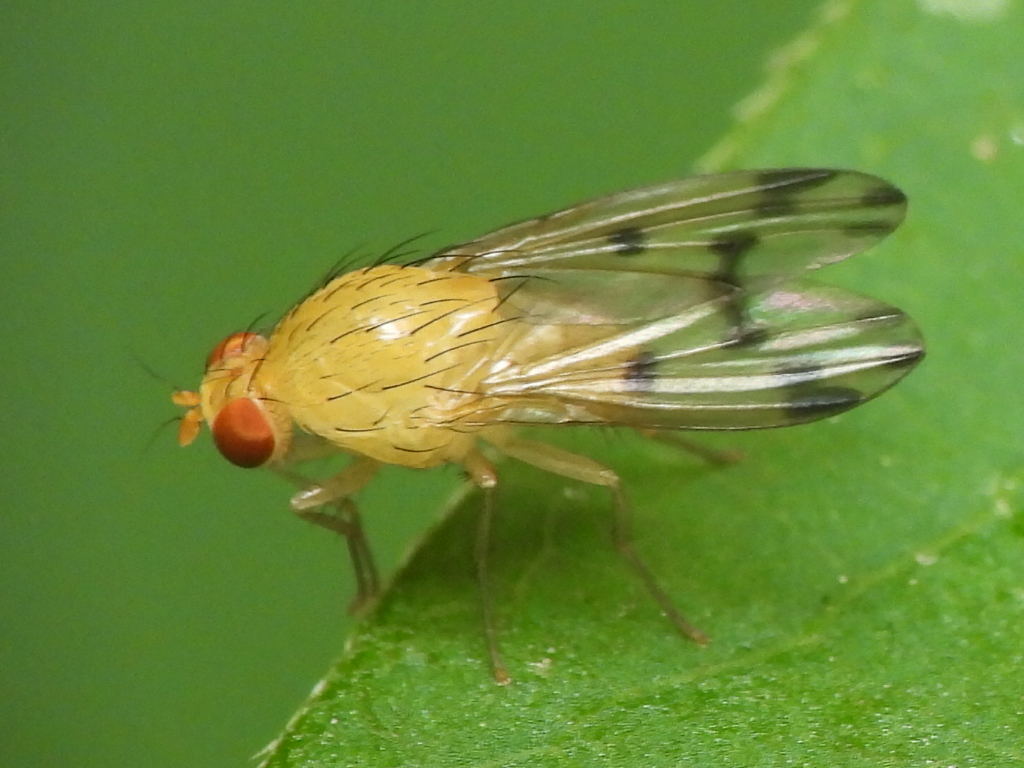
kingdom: Animalia
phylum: Arthropoda
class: Insecta
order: Diptera
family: Lauxaniidae
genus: Homoneura
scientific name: Homoneura incerta
